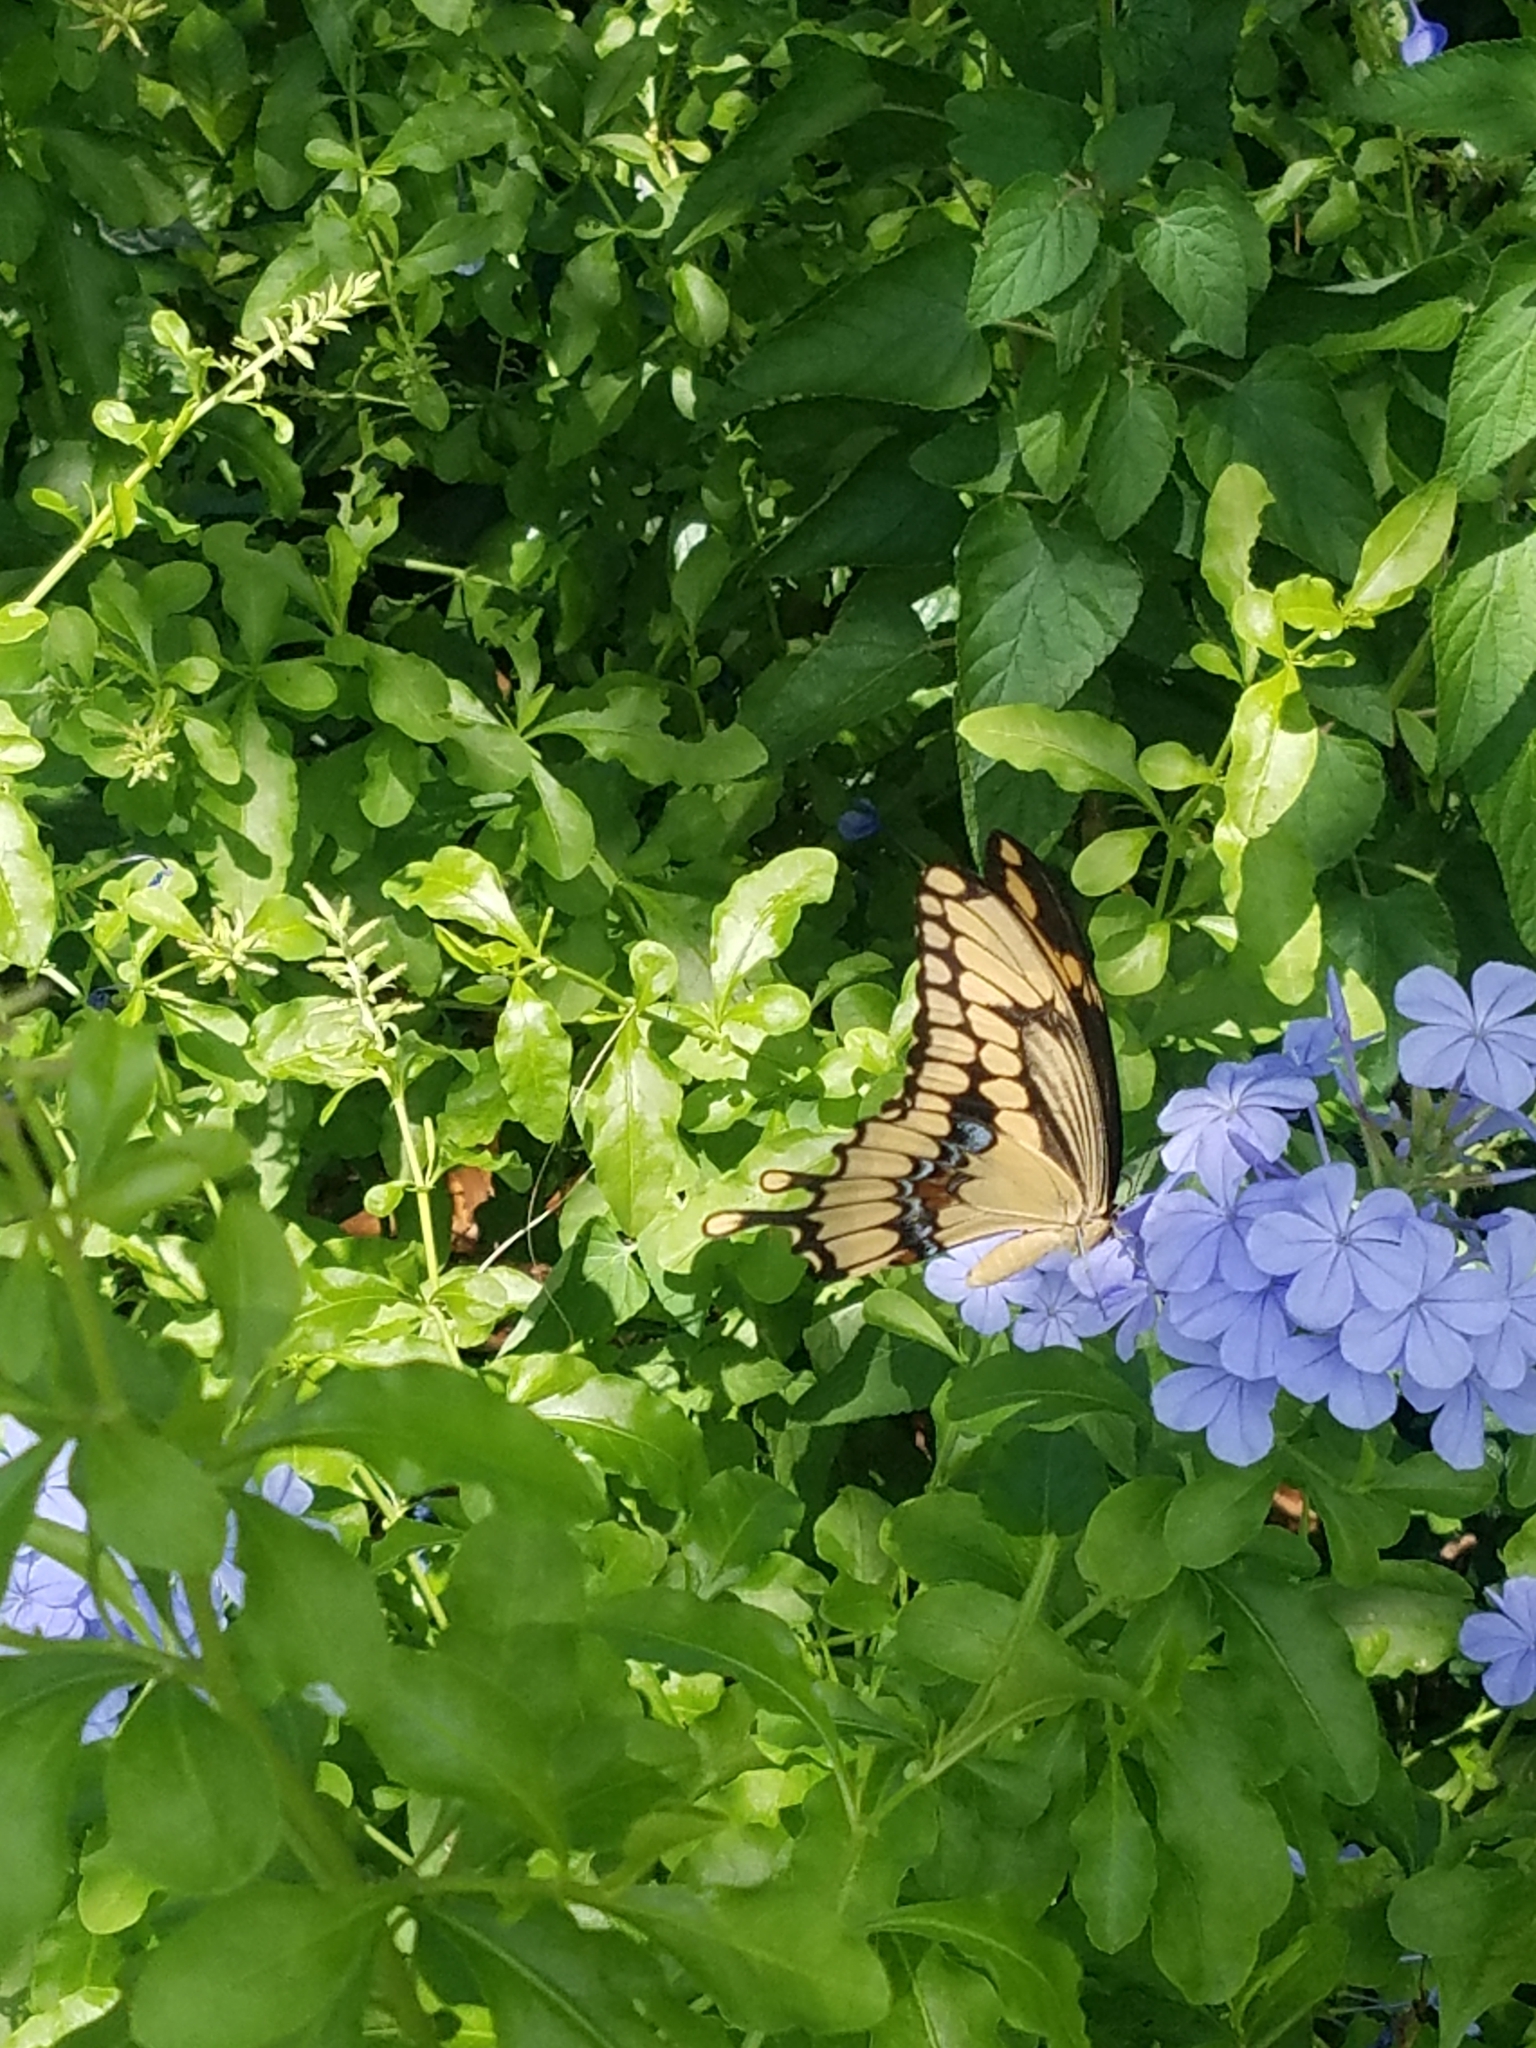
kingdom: Animalia
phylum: Arthropoda
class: Insecta
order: Lepidoptera
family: Papilionidae
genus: Papilio
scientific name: Papilio cresphontes
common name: Giant swallowtail
